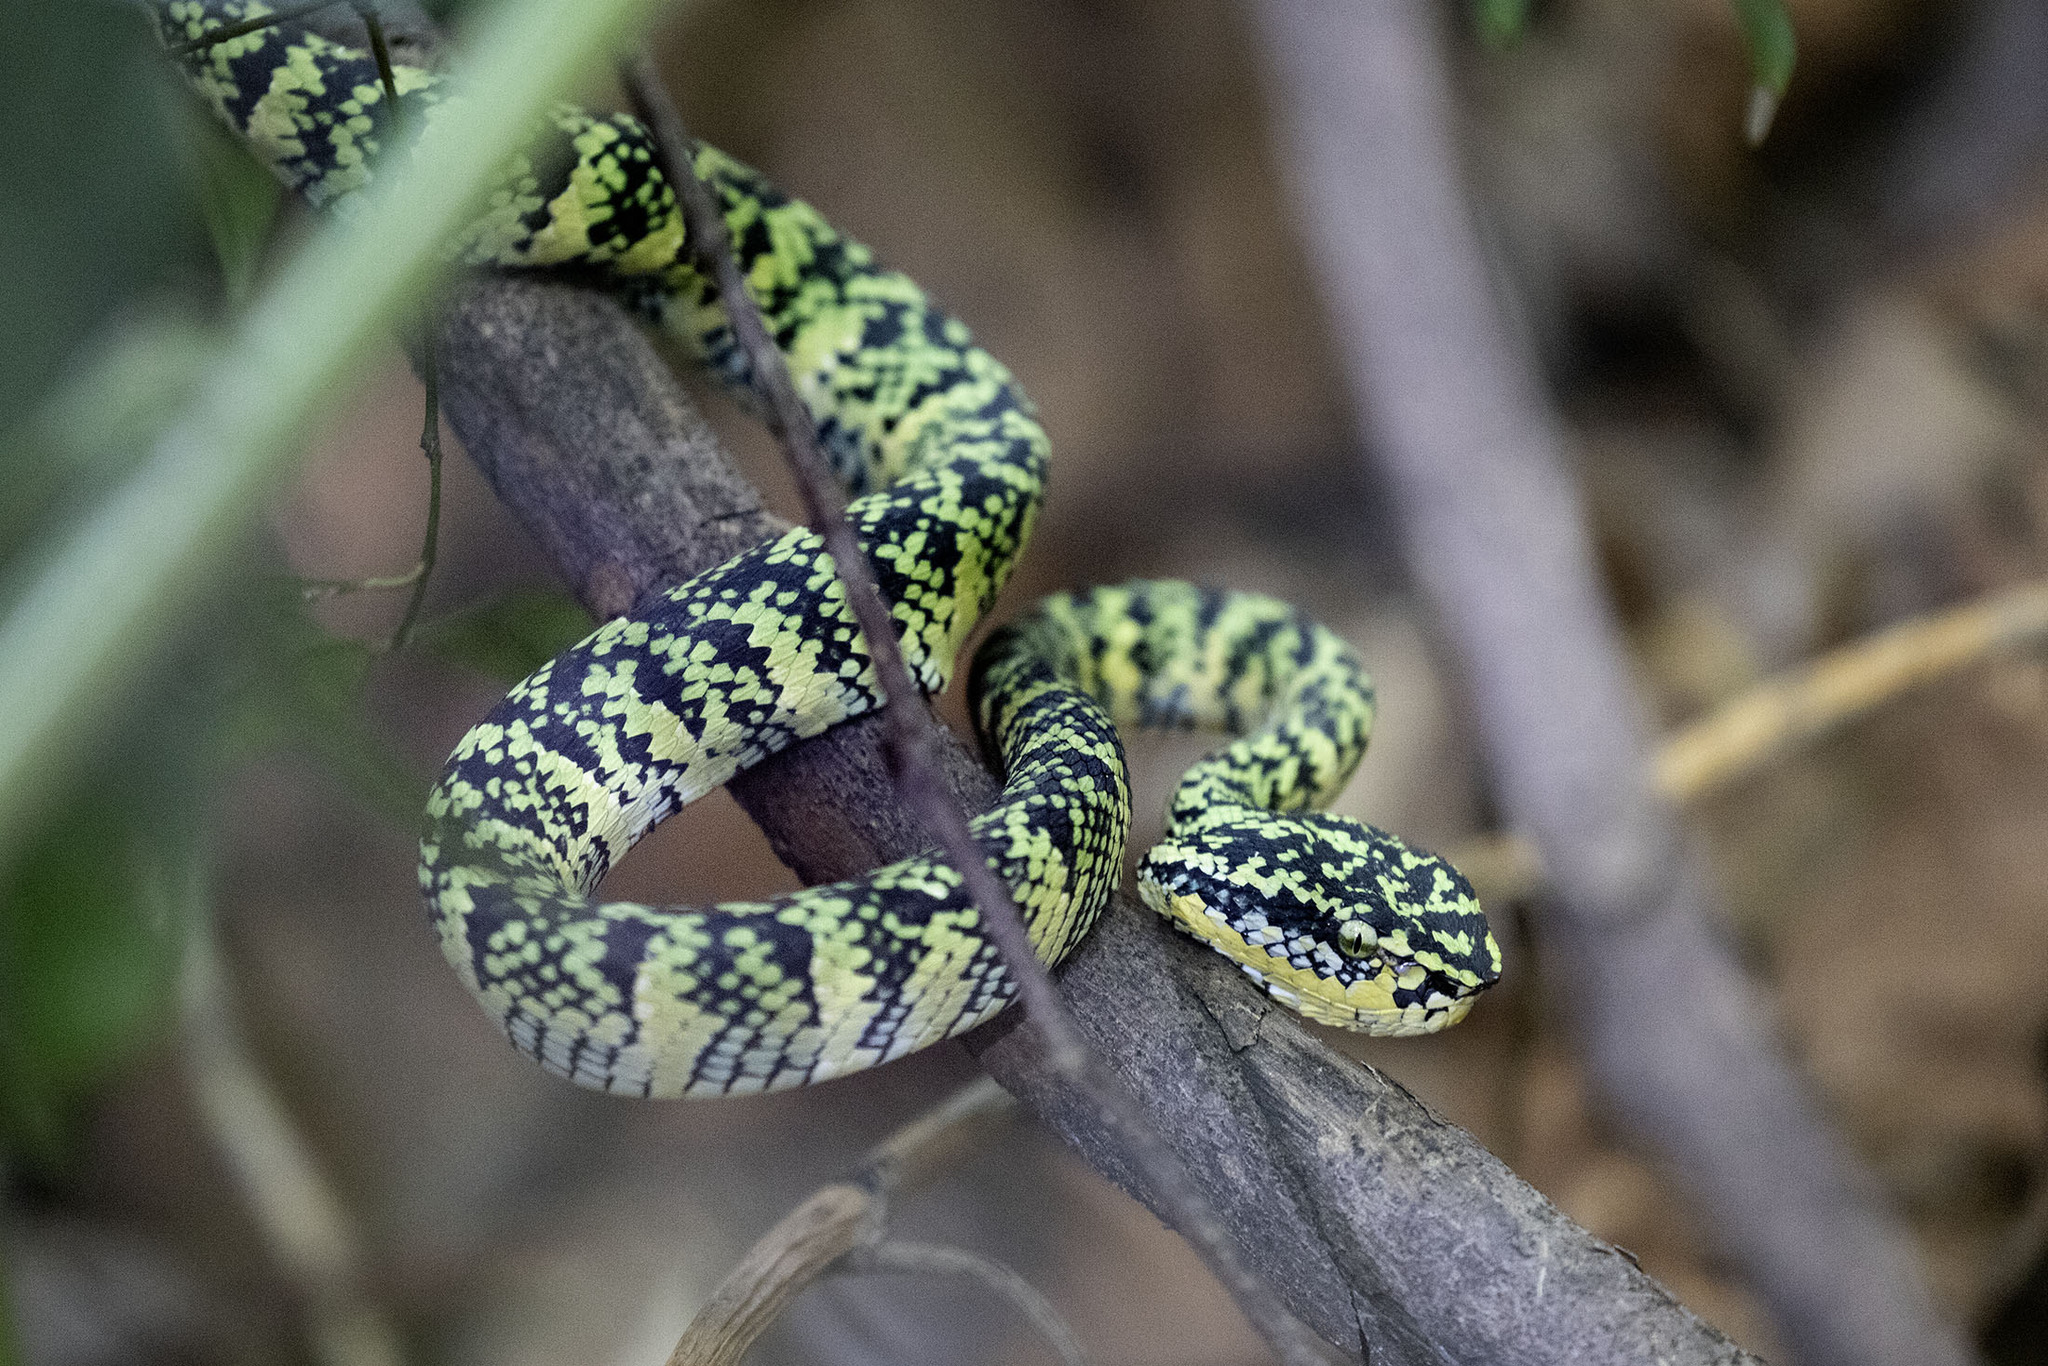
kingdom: Animalia
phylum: Chordata
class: Squamata
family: Viperidae
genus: Tropidolaemus
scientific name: Tropidolaemus wagleri
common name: Wagler's palm viper
